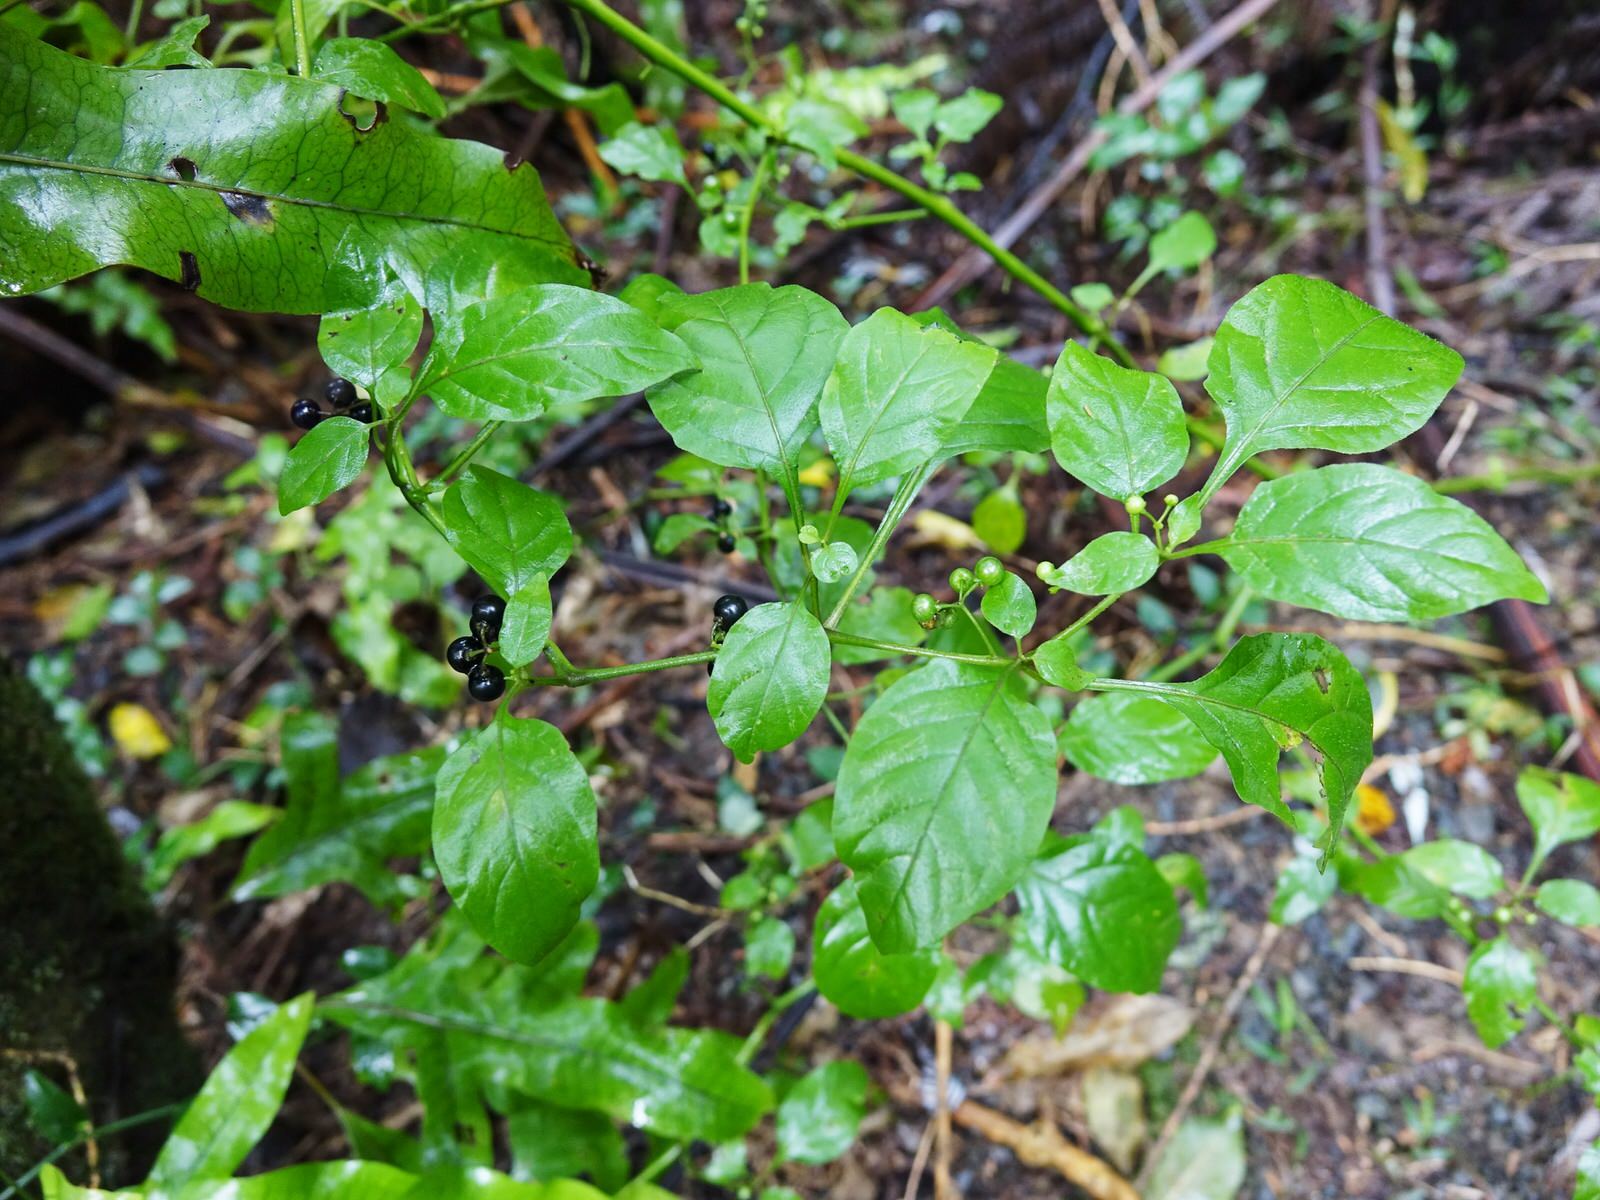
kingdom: Plantae
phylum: Tracheophyta
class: Magnoliopsida
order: Solanales
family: Solanaceae
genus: Solanum
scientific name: Solanum americanum
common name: American black nightshade
